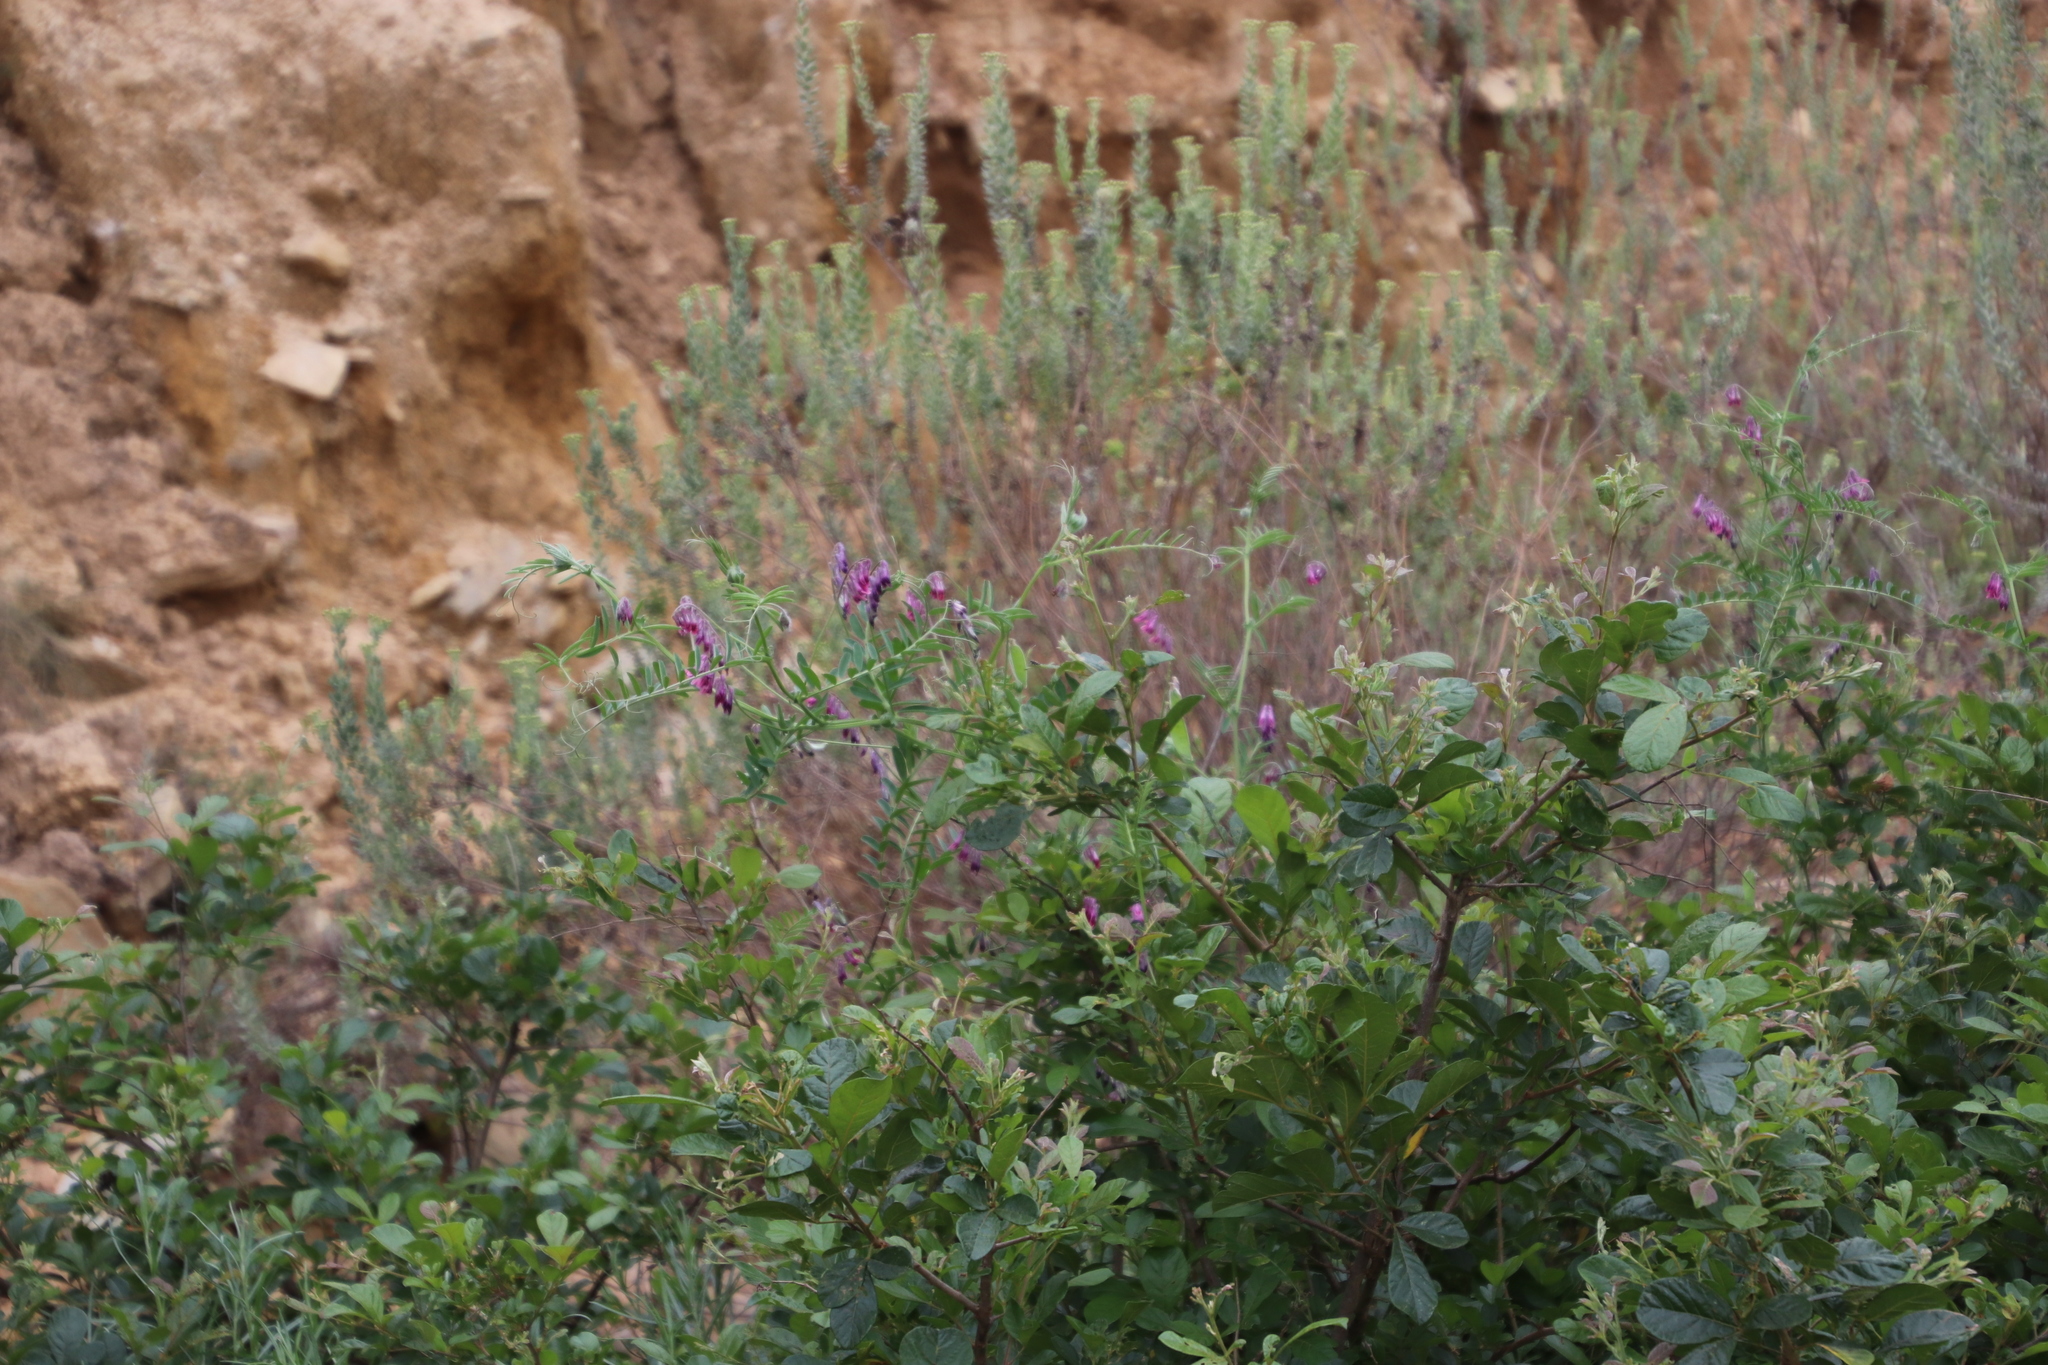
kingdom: Plantae
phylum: Tracheophyta
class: Magnoliopsida
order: Fabales
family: Fabaceae
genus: Vicia
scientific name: Vicia benghalensis
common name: Purple vetch
